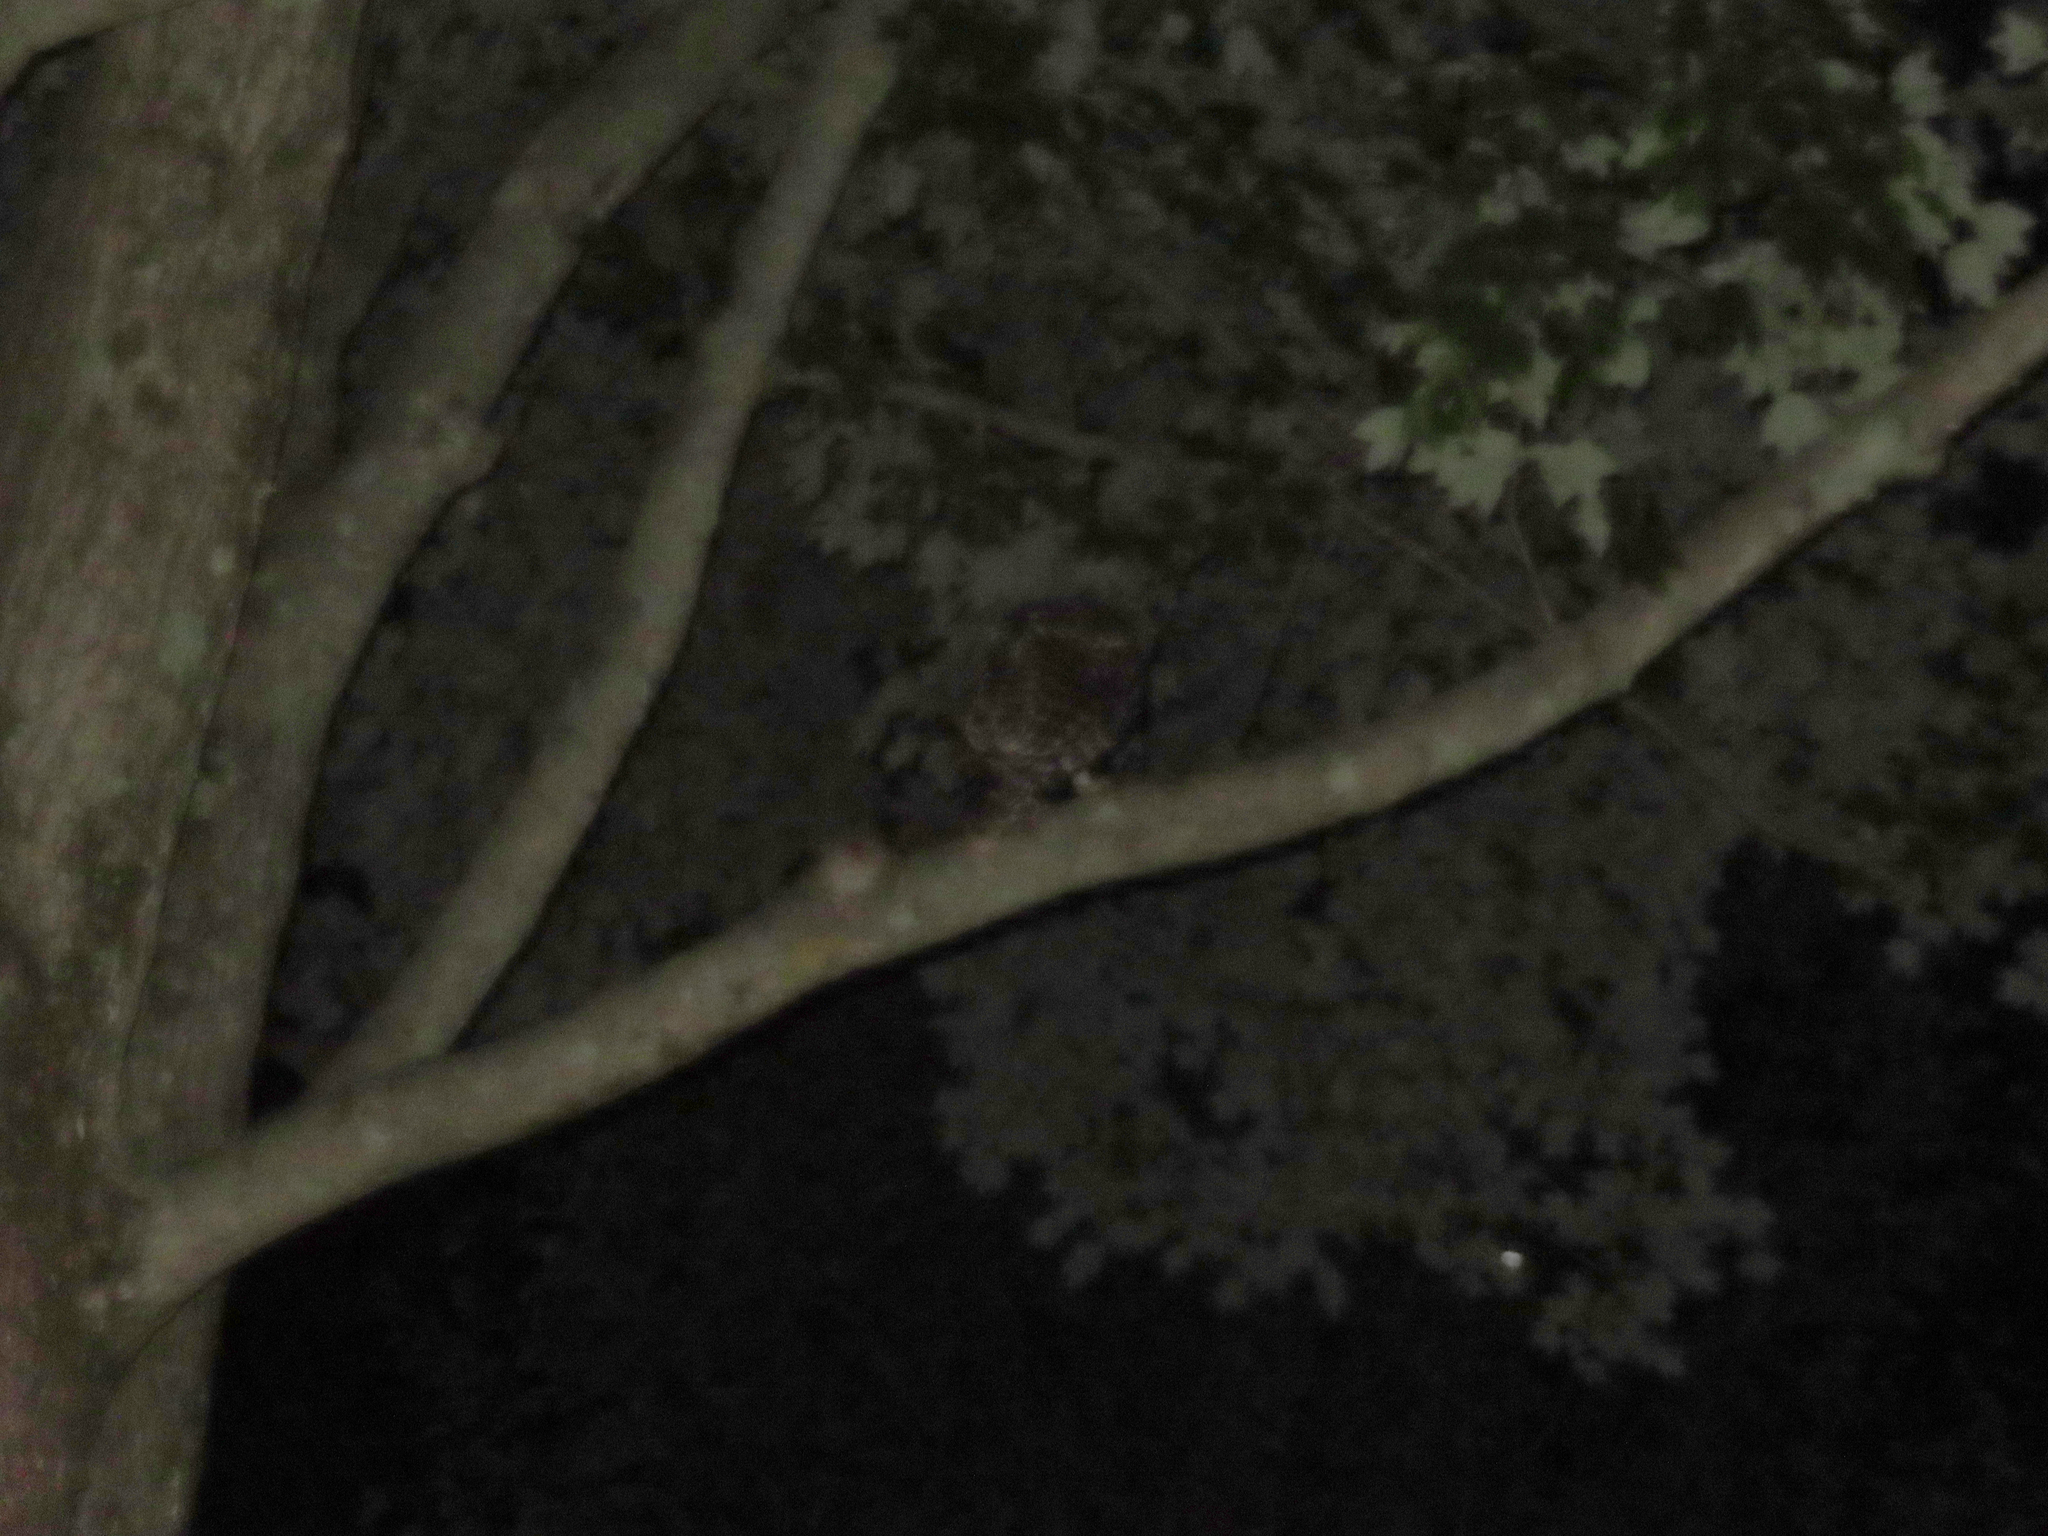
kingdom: Animalia
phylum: Chordata
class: Aves
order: Strigiformes
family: Strigidae
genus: Strix
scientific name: Strix varia
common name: Barred owl
